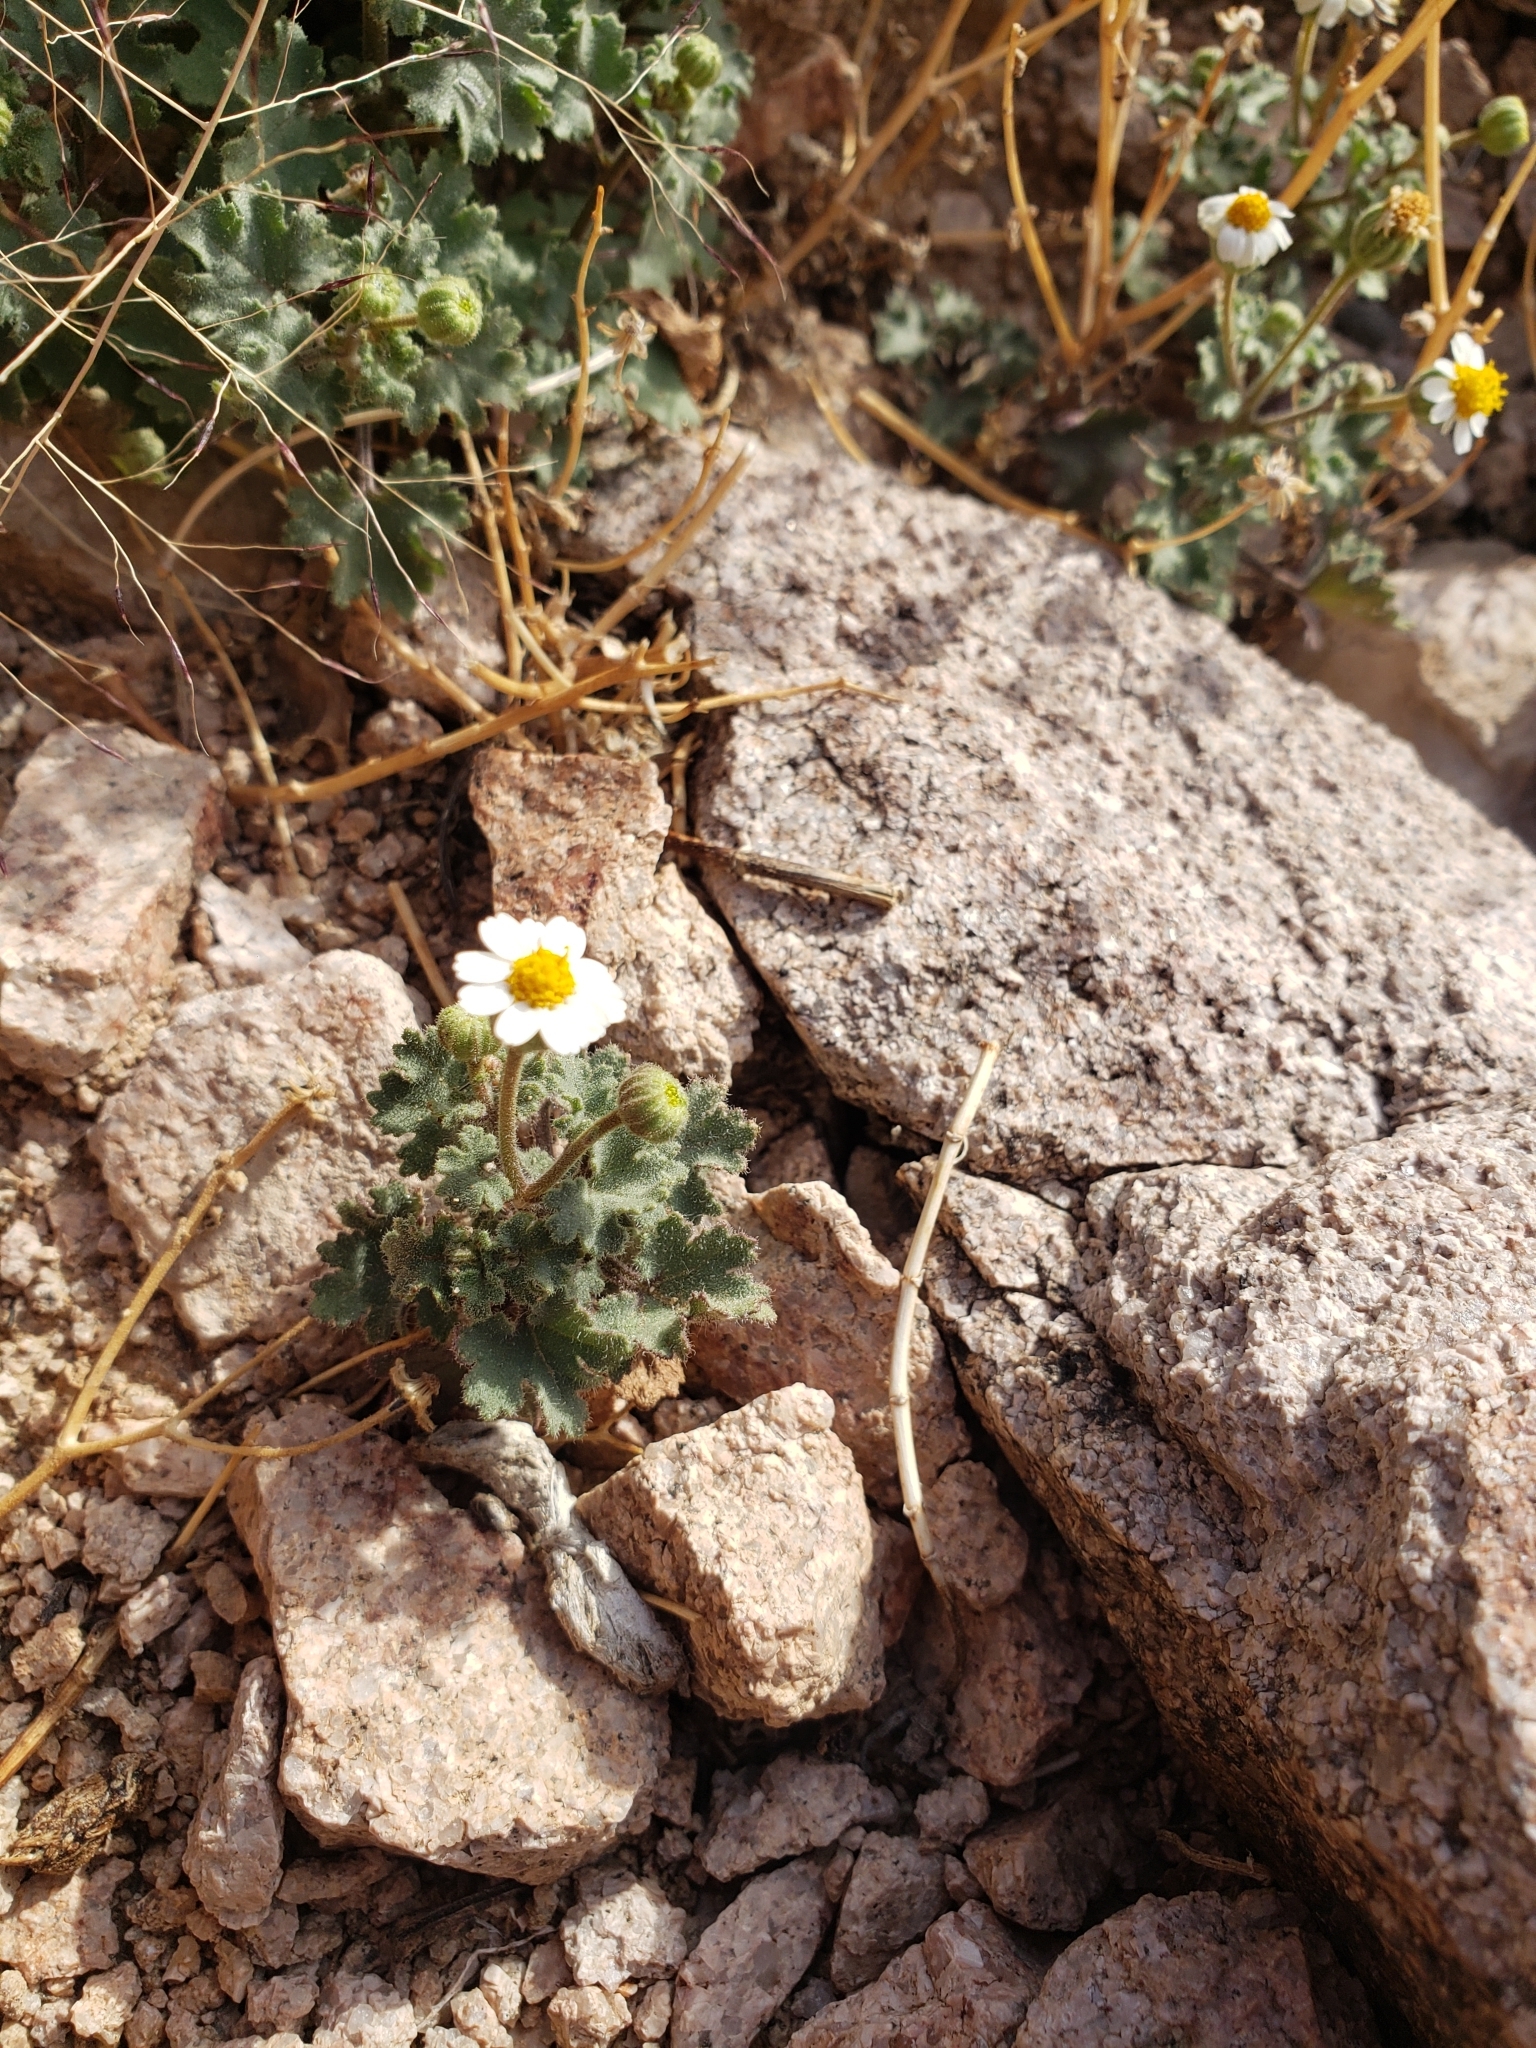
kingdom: Plantae
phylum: Tracheophyta
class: Magnoliopsida
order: Asterales
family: Asteraceae
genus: Laphamia
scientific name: Laphamia emoryi
